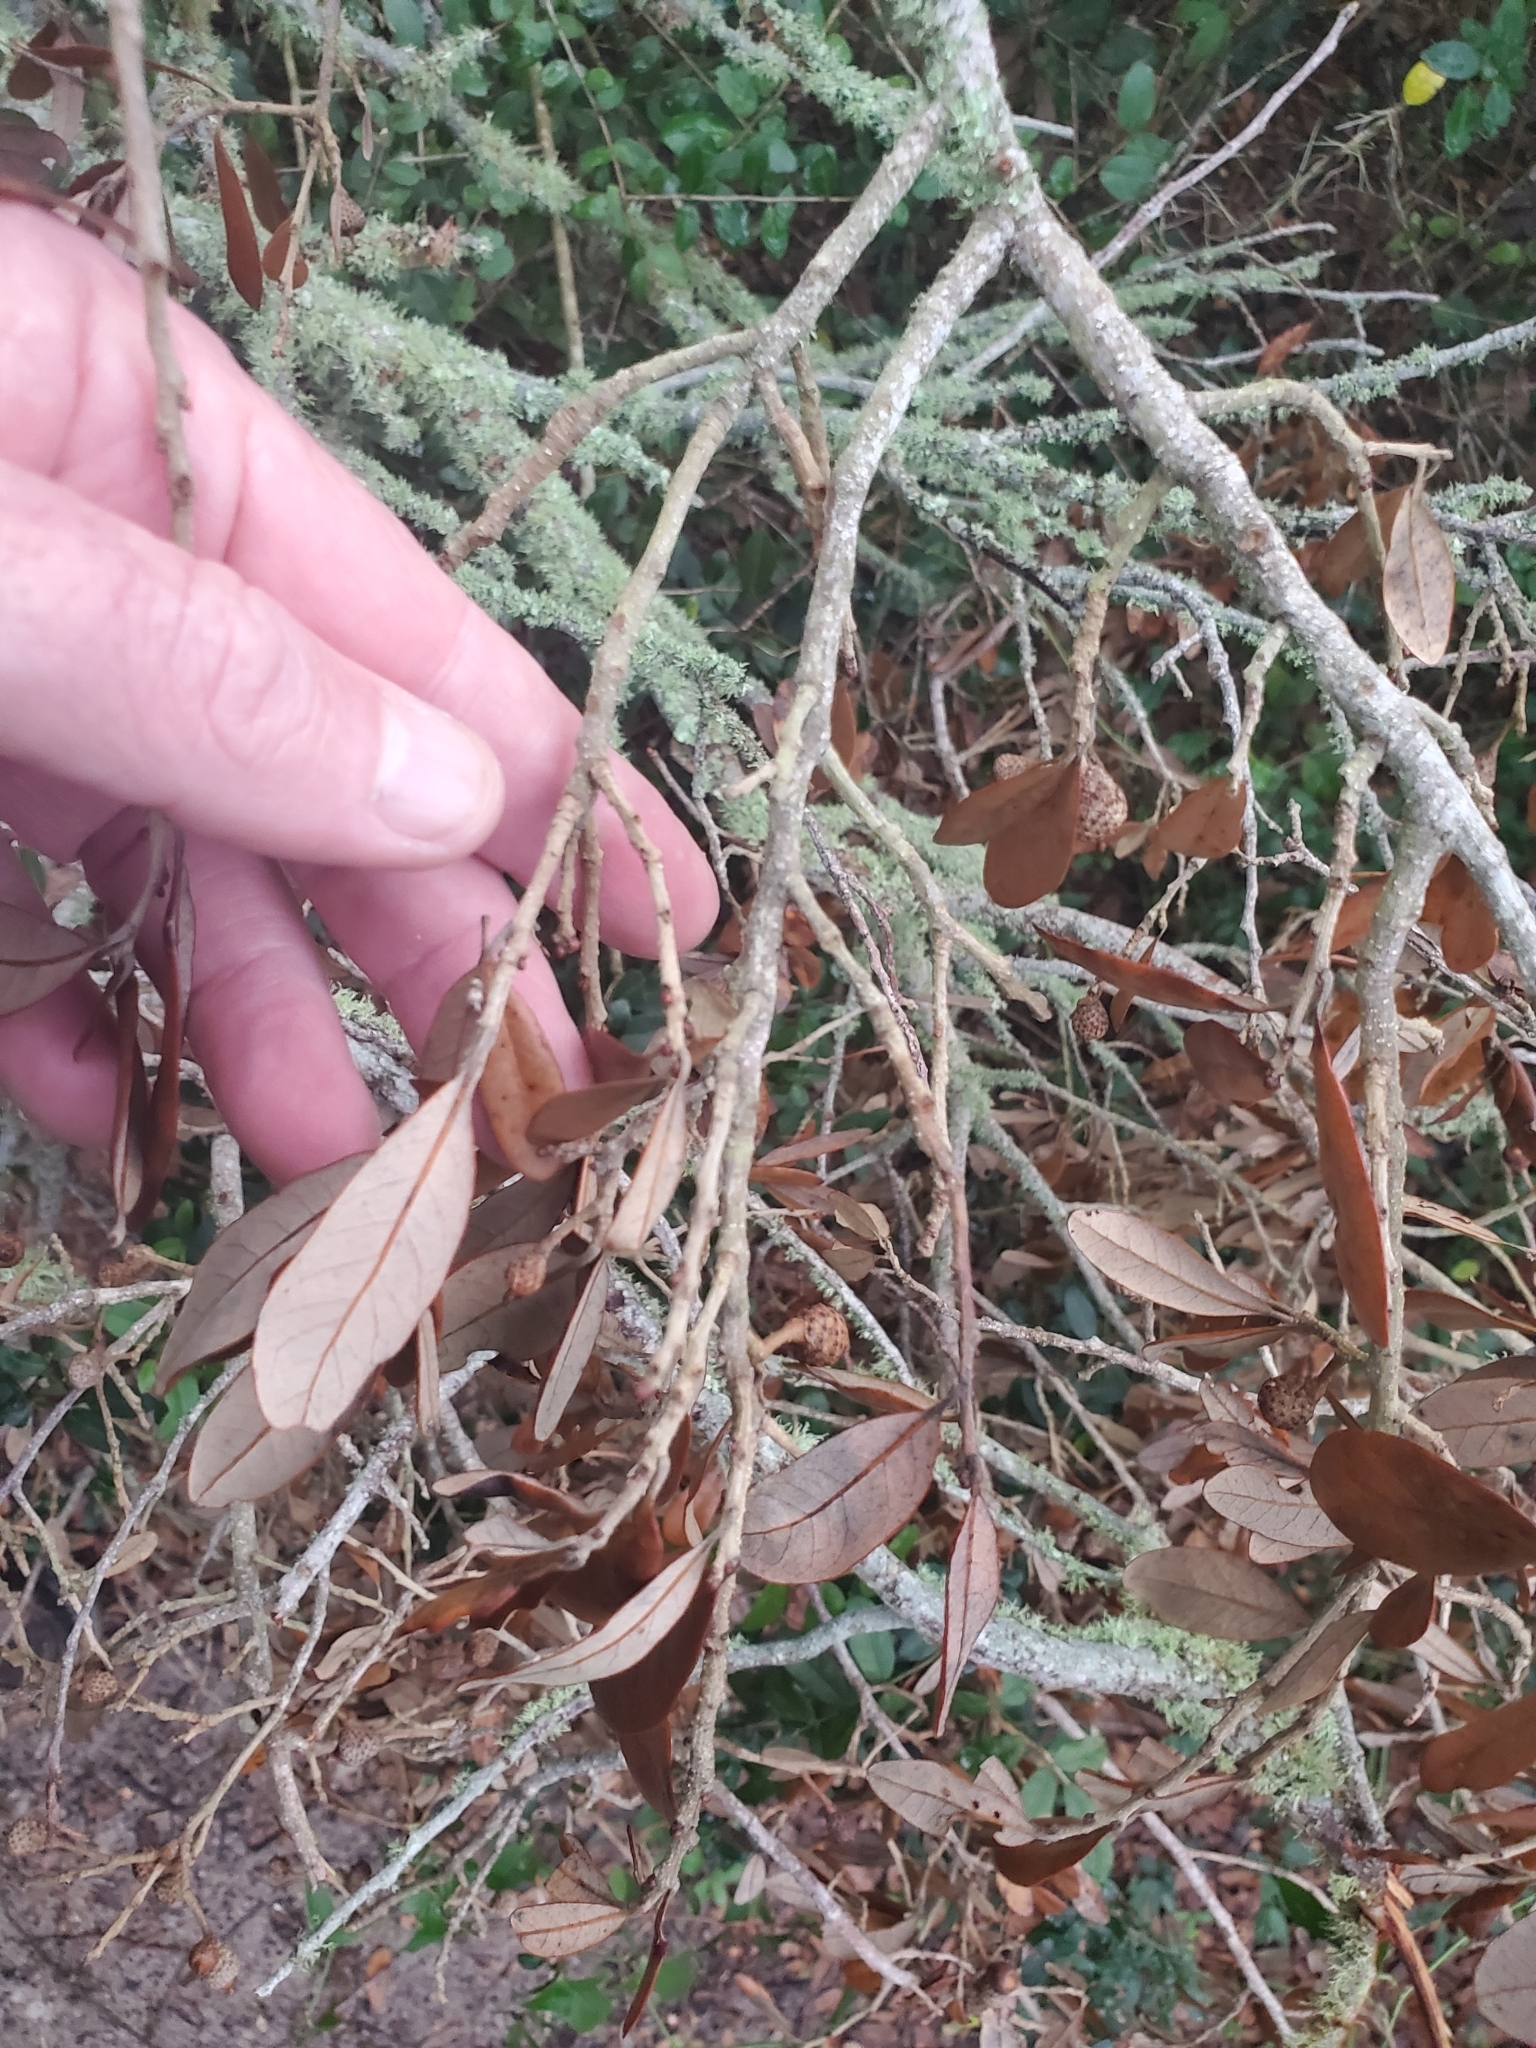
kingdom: Plantae
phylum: Tracheophyta
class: Magnoliopsida
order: Fagales
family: Fagaceae
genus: Quercus
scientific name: Quercus virginiana
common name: Southern live oak
